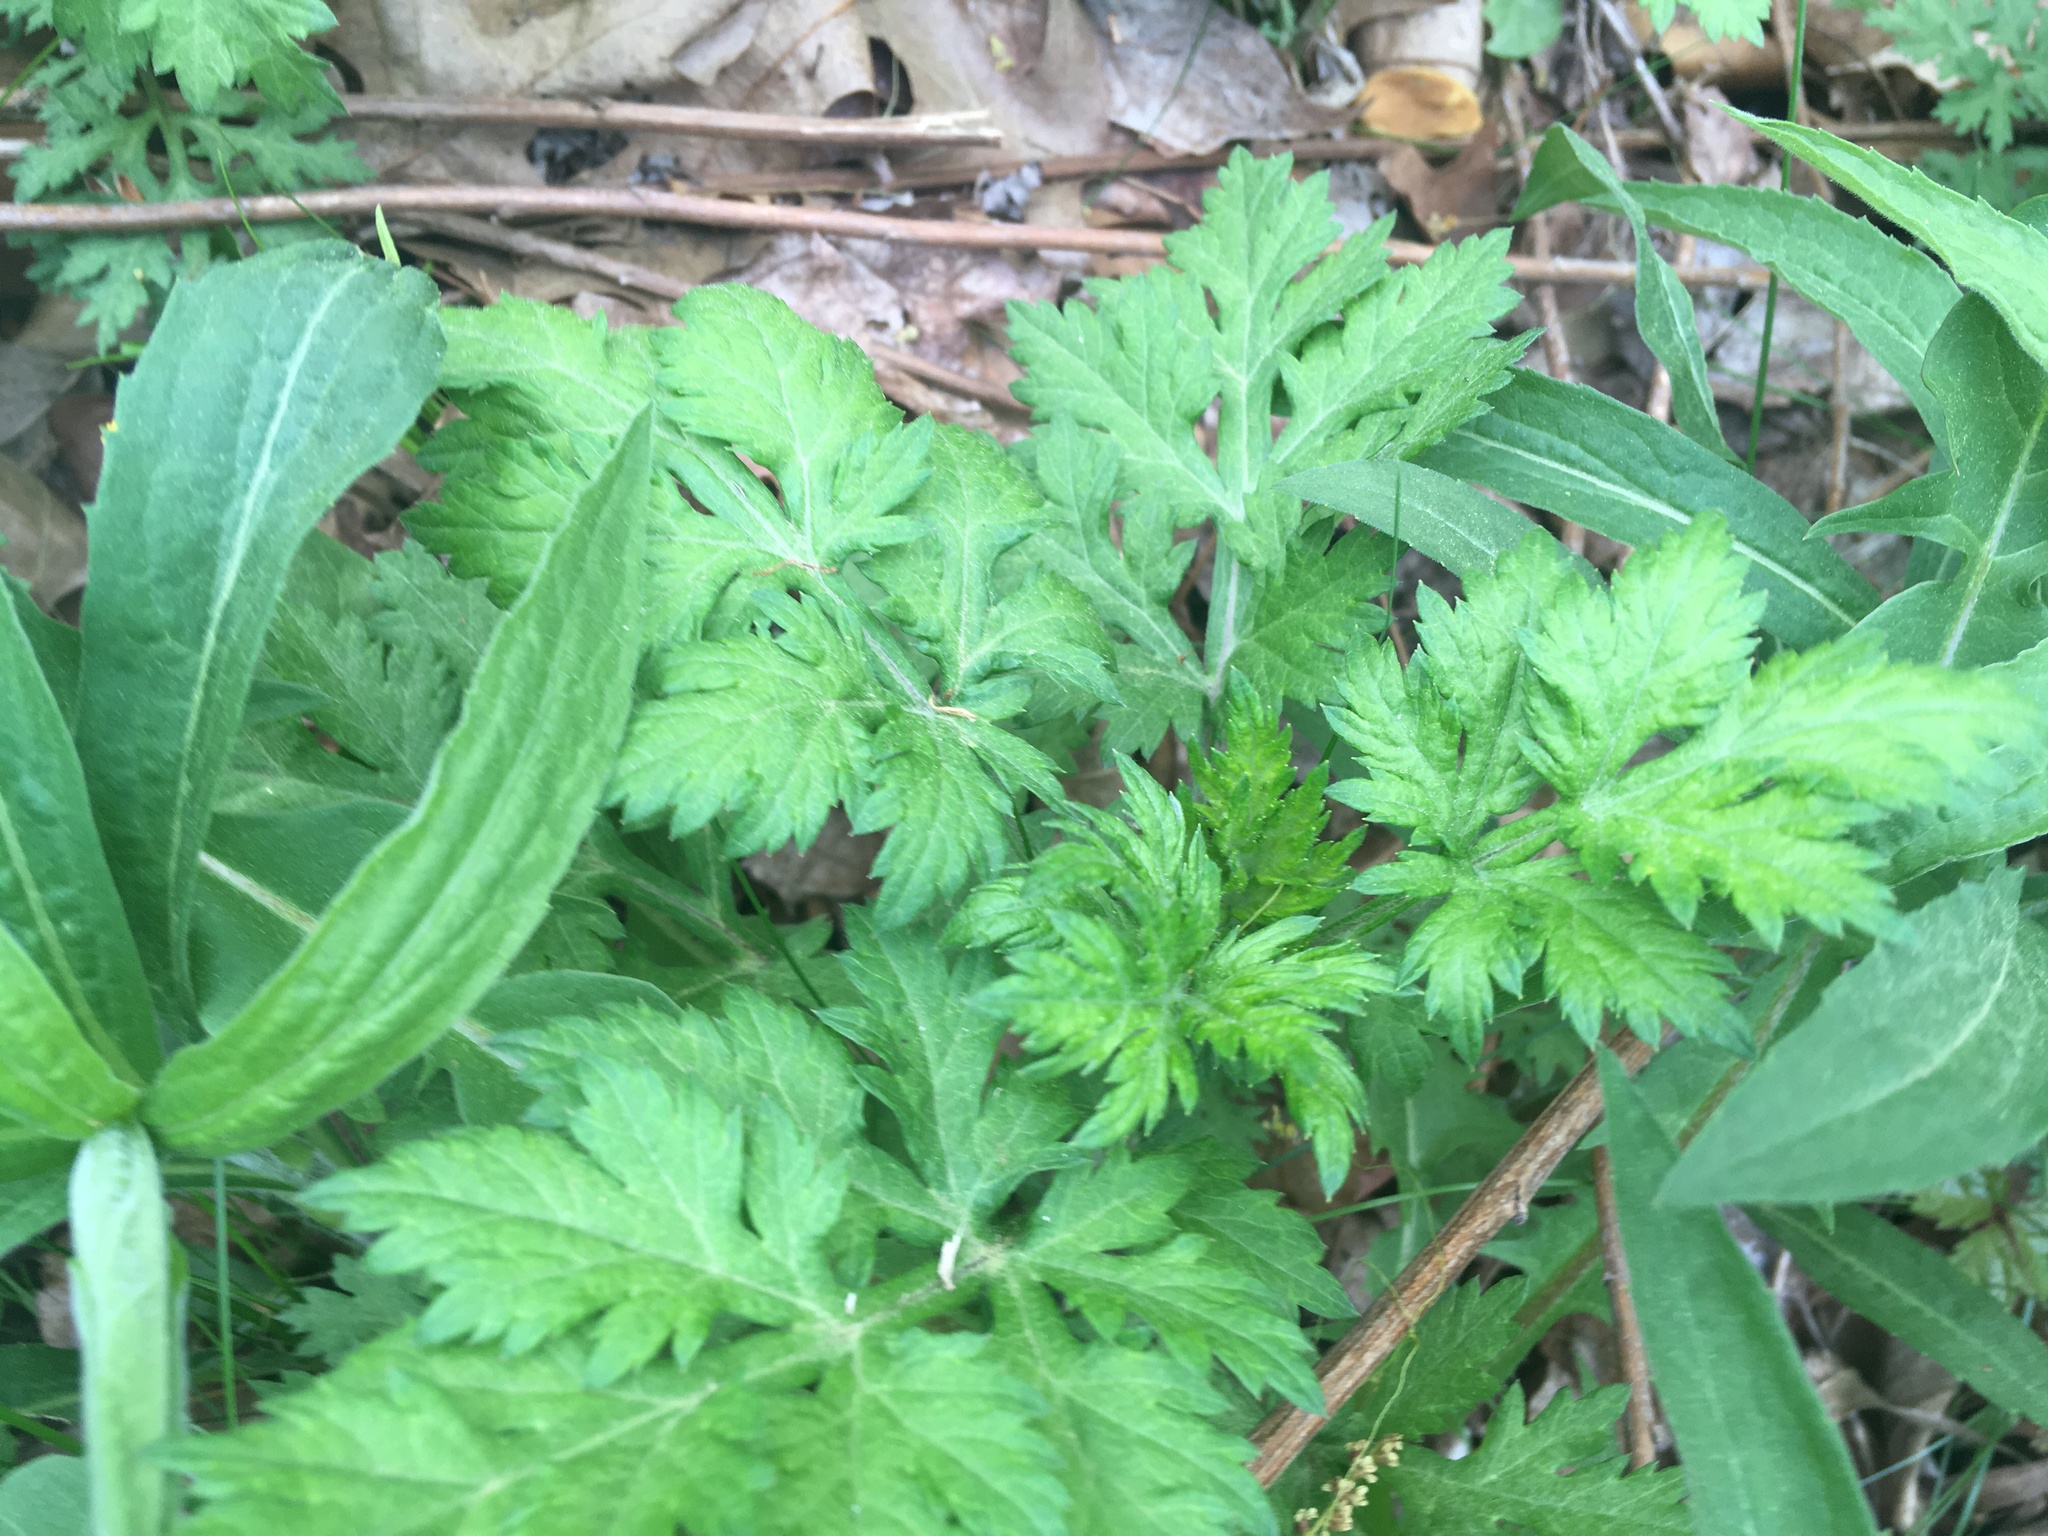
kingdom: Plantae
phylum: Tracheophyta
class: Magnoliopsida
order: Asterales
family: Asteraceae
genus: Artemisia
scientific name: Artemisia vulgaris
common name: Mugwort
